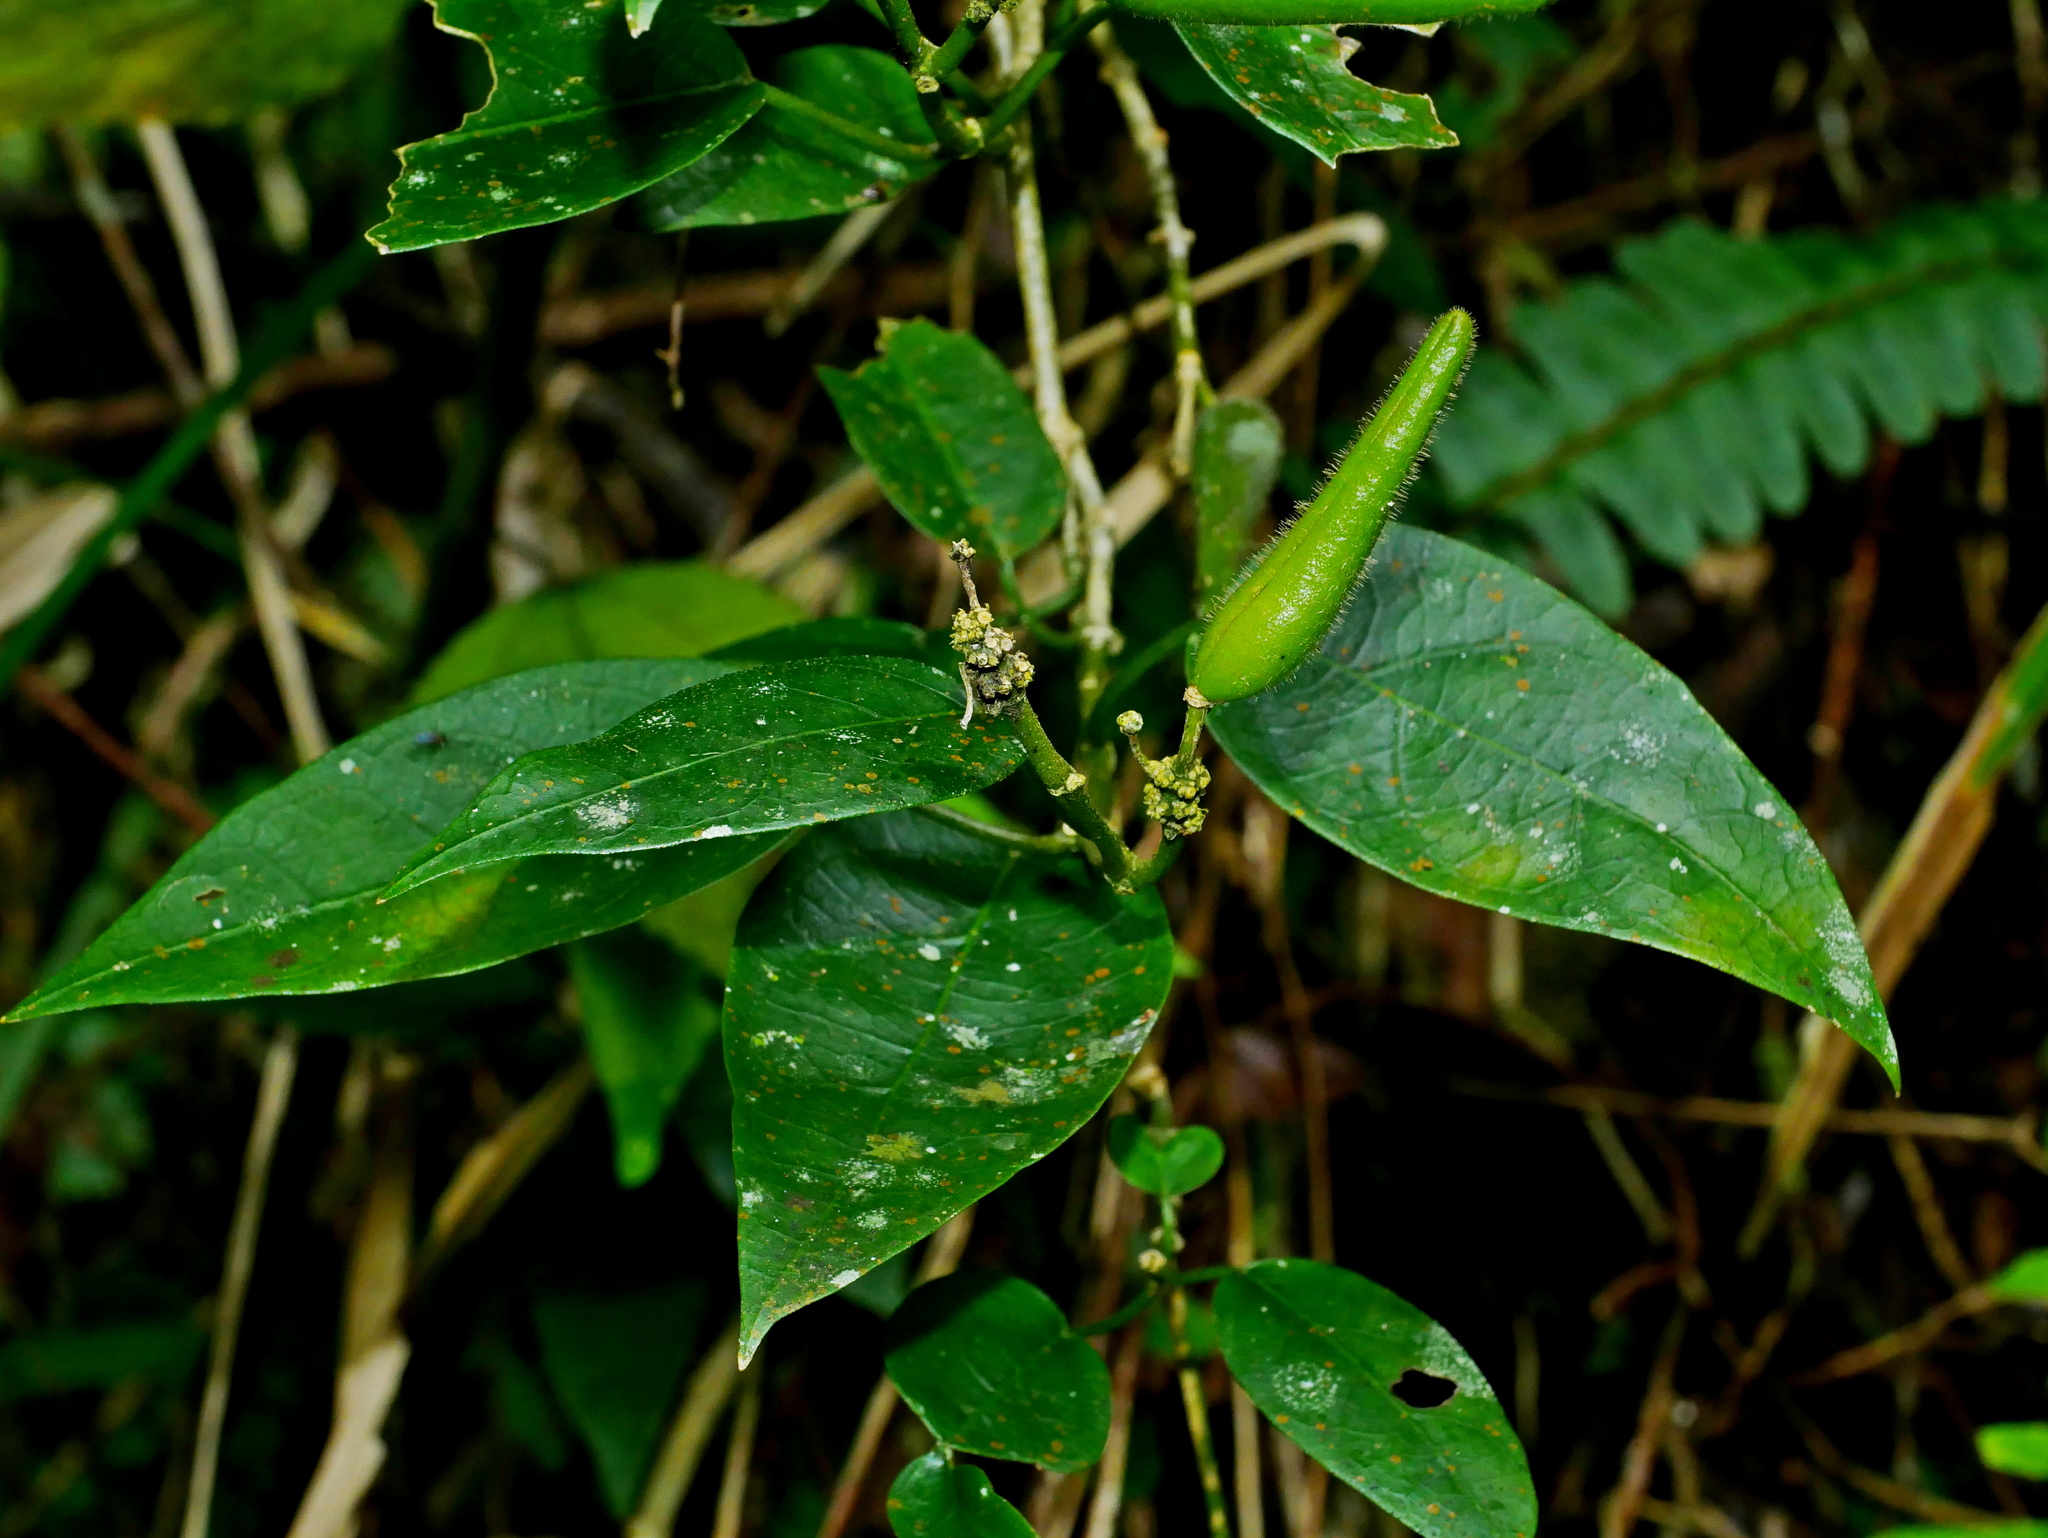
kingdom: Plantae
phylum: Tracheophyta
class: Magnoliopsida
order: Gentianales
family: Apocynaceae
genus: Marsdenia
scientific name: Marsdenia tinctoria
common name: Climbing-indigo
